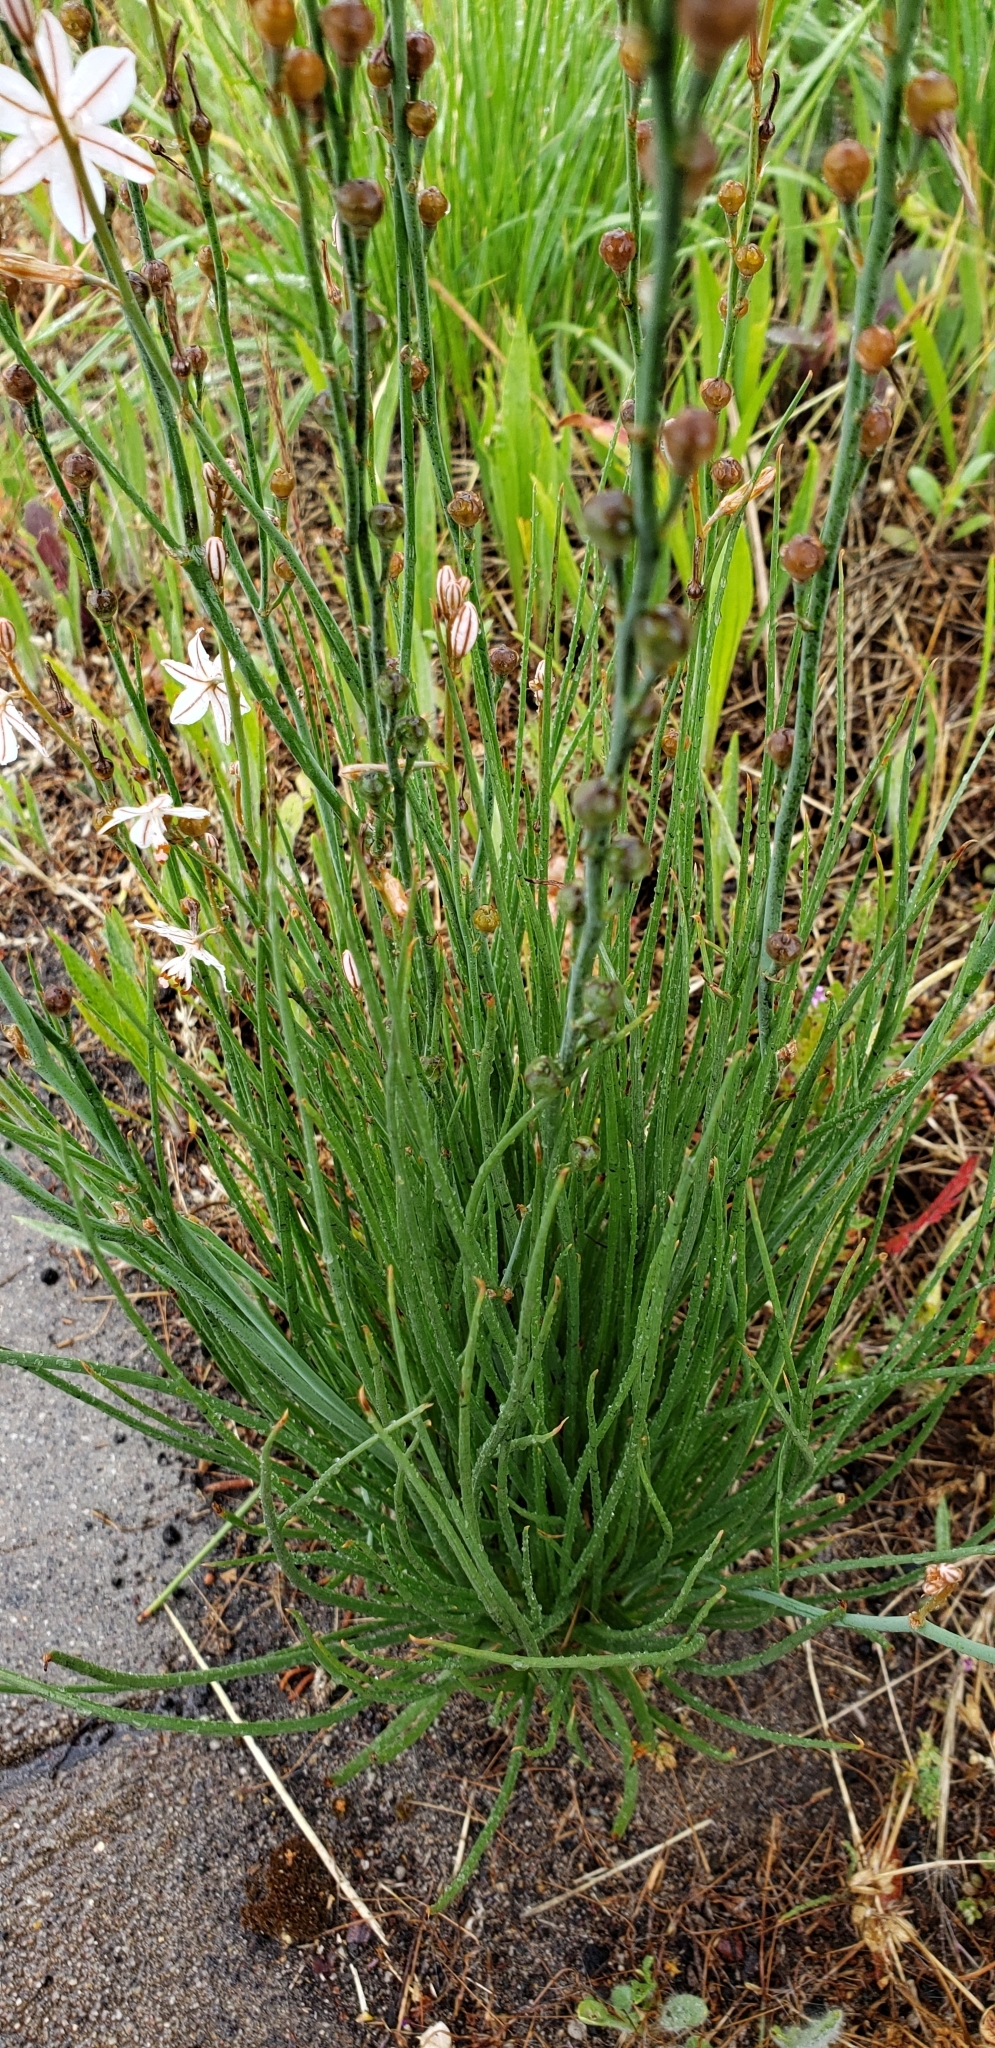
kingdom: Plantae
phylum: Tracheophyta
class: Liliopsida
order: Asparagales
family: Asphodelaceae
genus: Asphodelus
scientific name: Asphodelus fistulosus
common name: Onionweed
